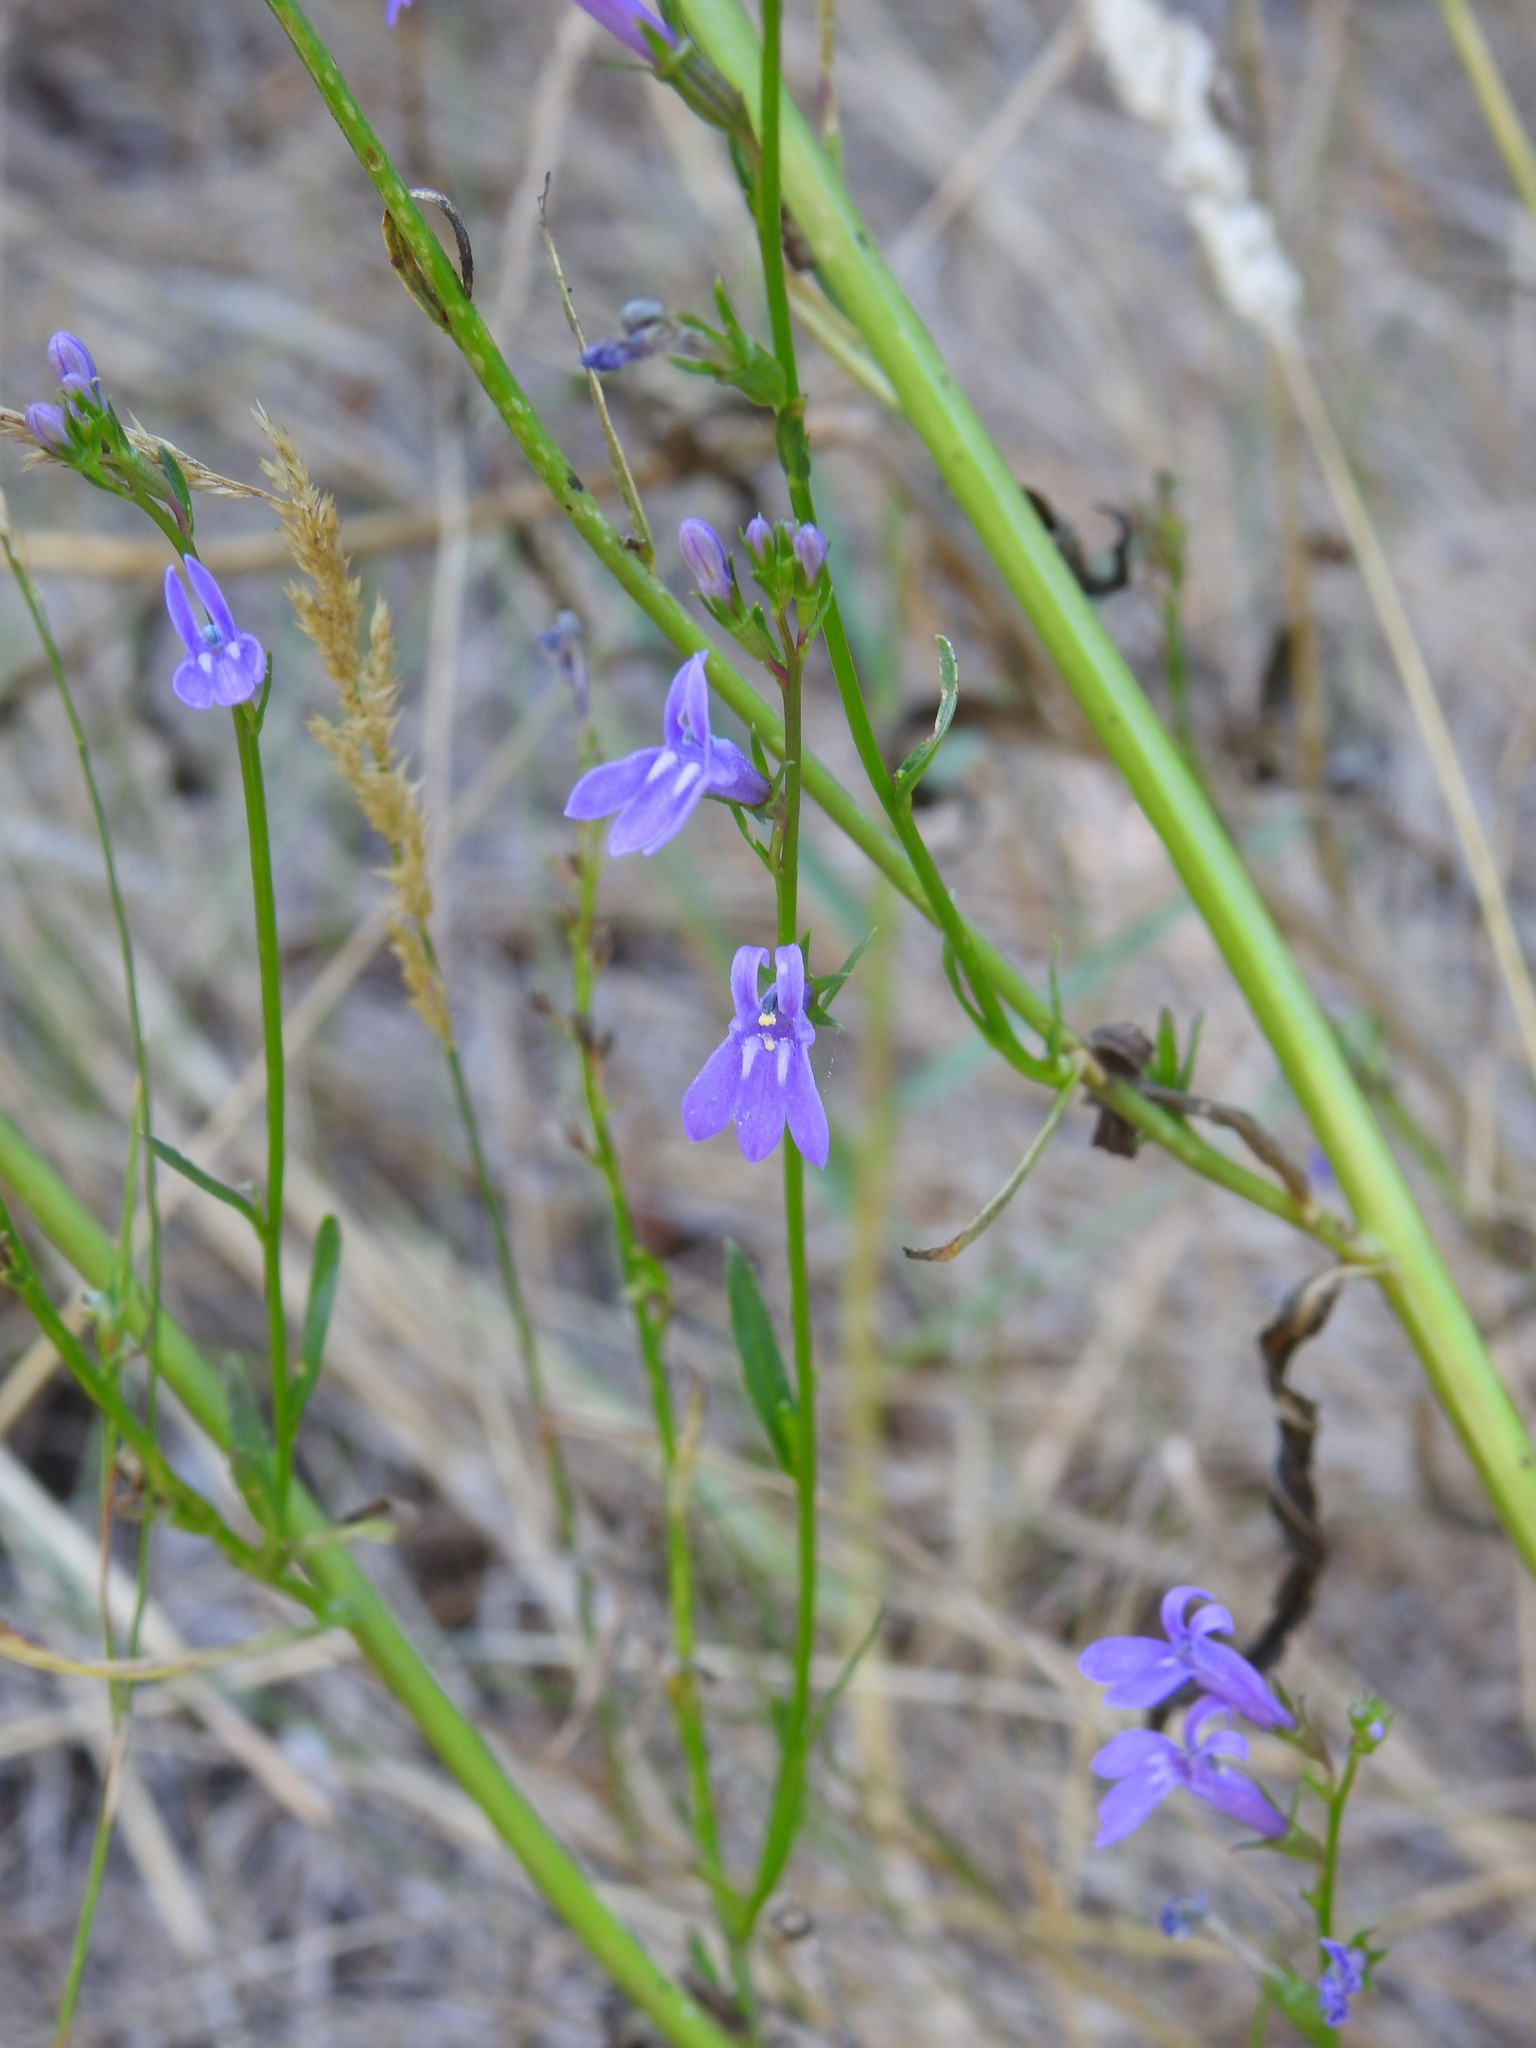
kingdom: Plantae
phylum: Tracheophyta
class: Magnoliopsida
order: Asterales
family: Campanulaceae
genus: Lobelia
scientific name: Lobelia urens
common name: Heath lobelia
